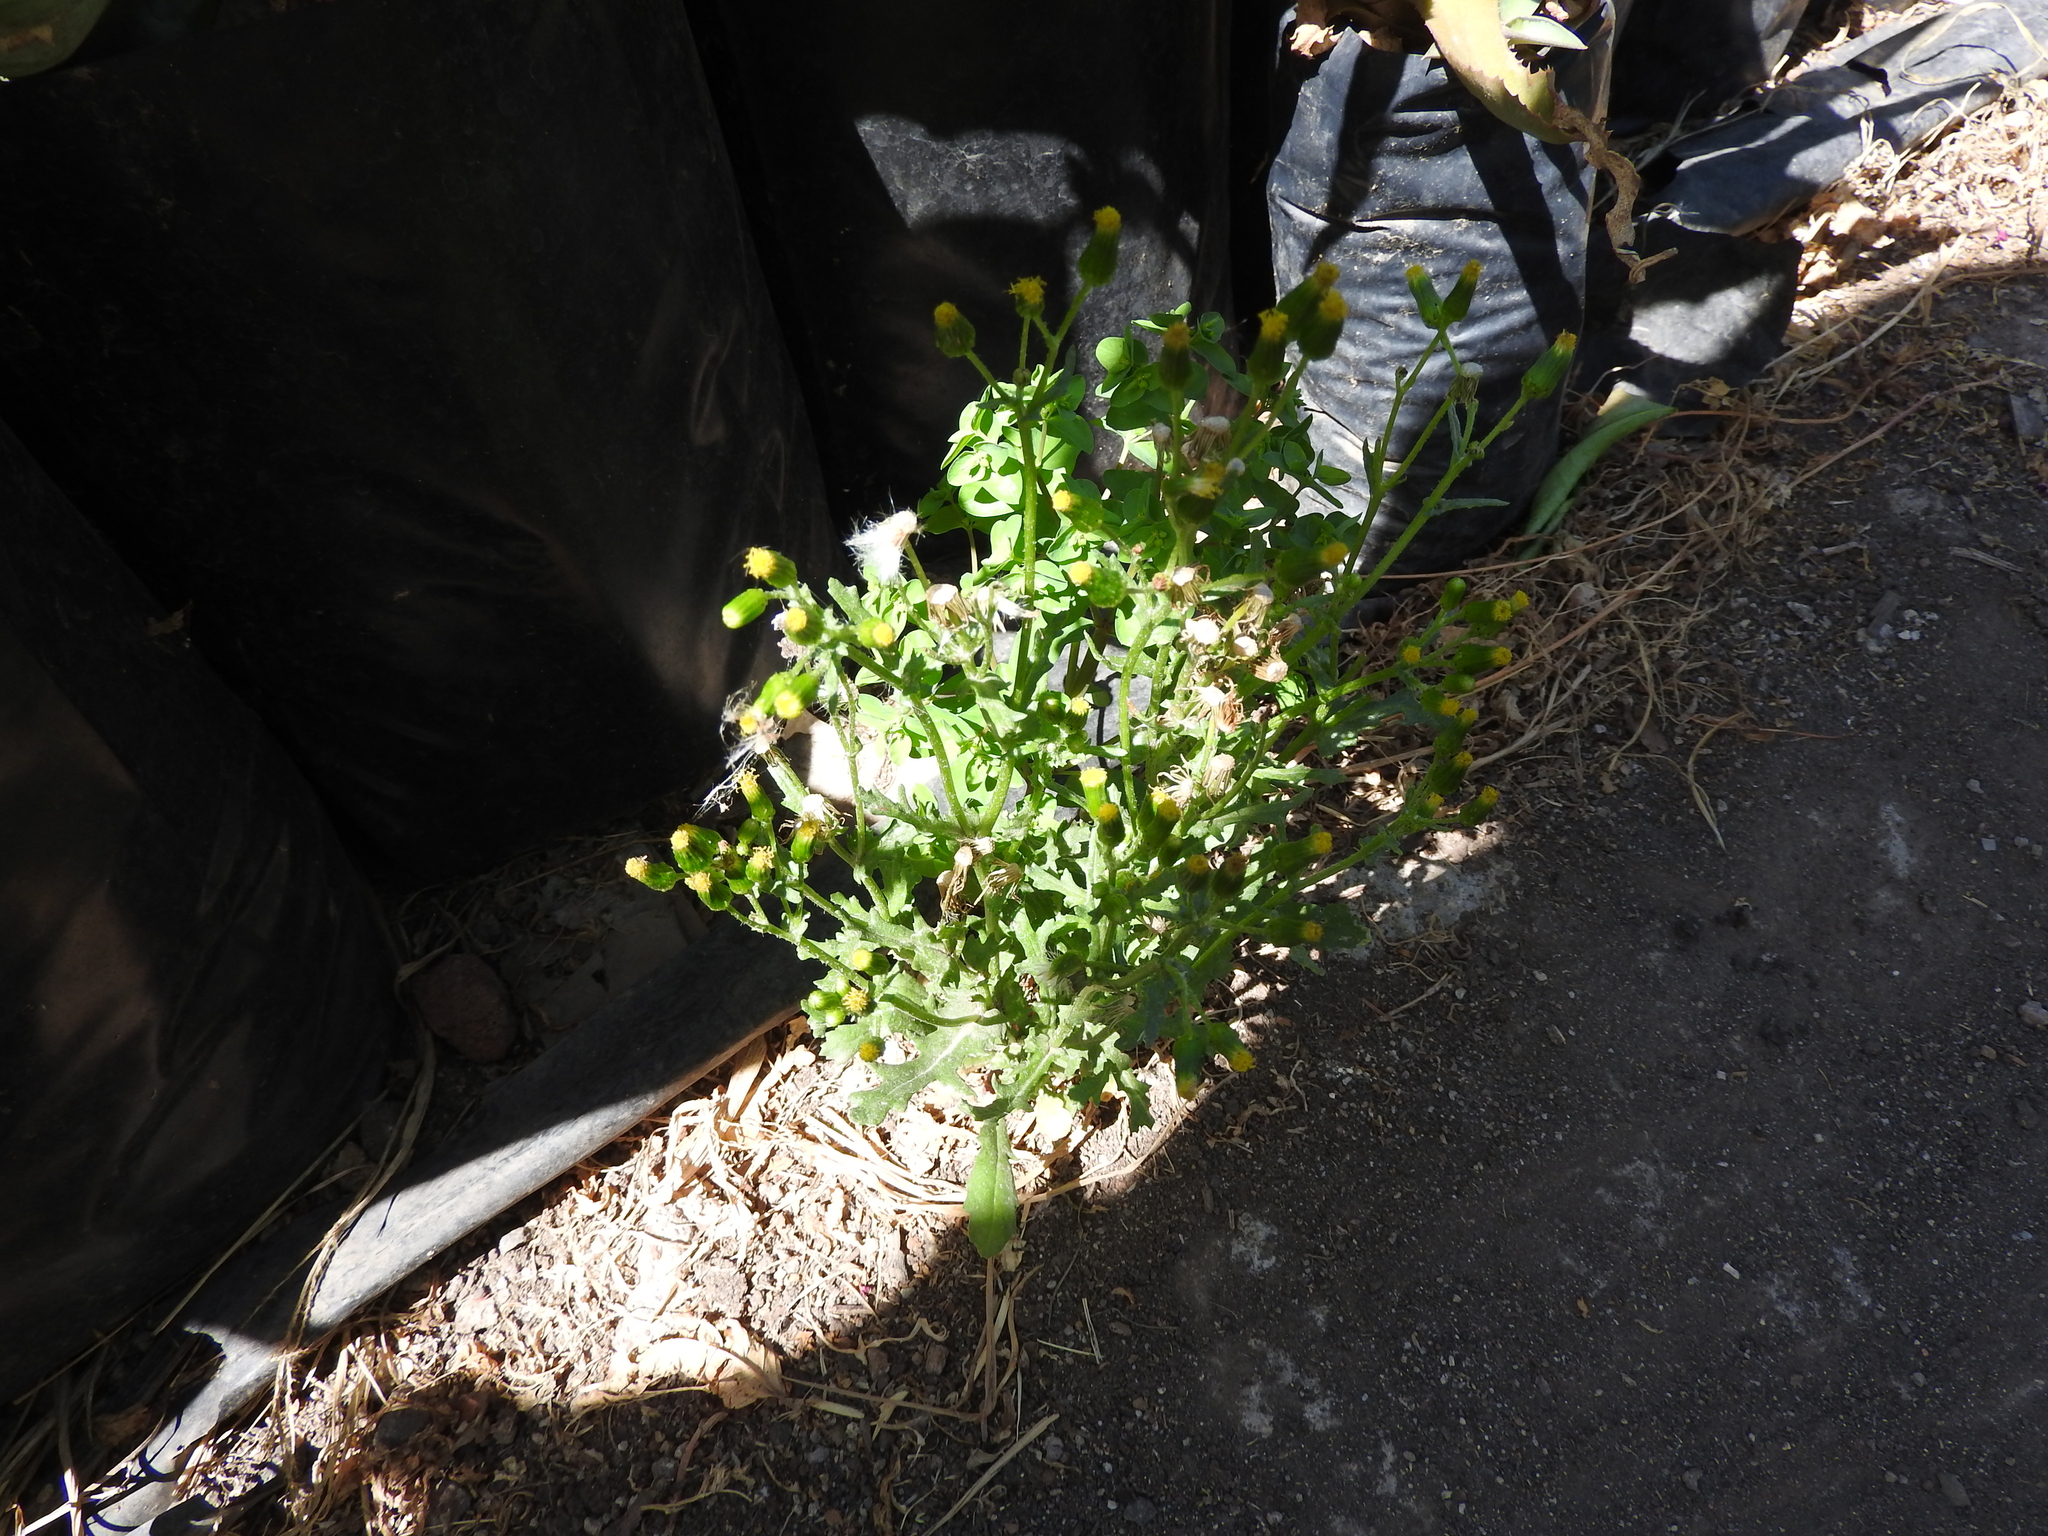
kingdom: Plantae
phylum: Tracheophyta
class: Magnoliopsida
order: Asterales
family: Asteraceae
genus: Senecio
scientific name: Senecio vulgaris
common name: Old-man-in-the-spring
